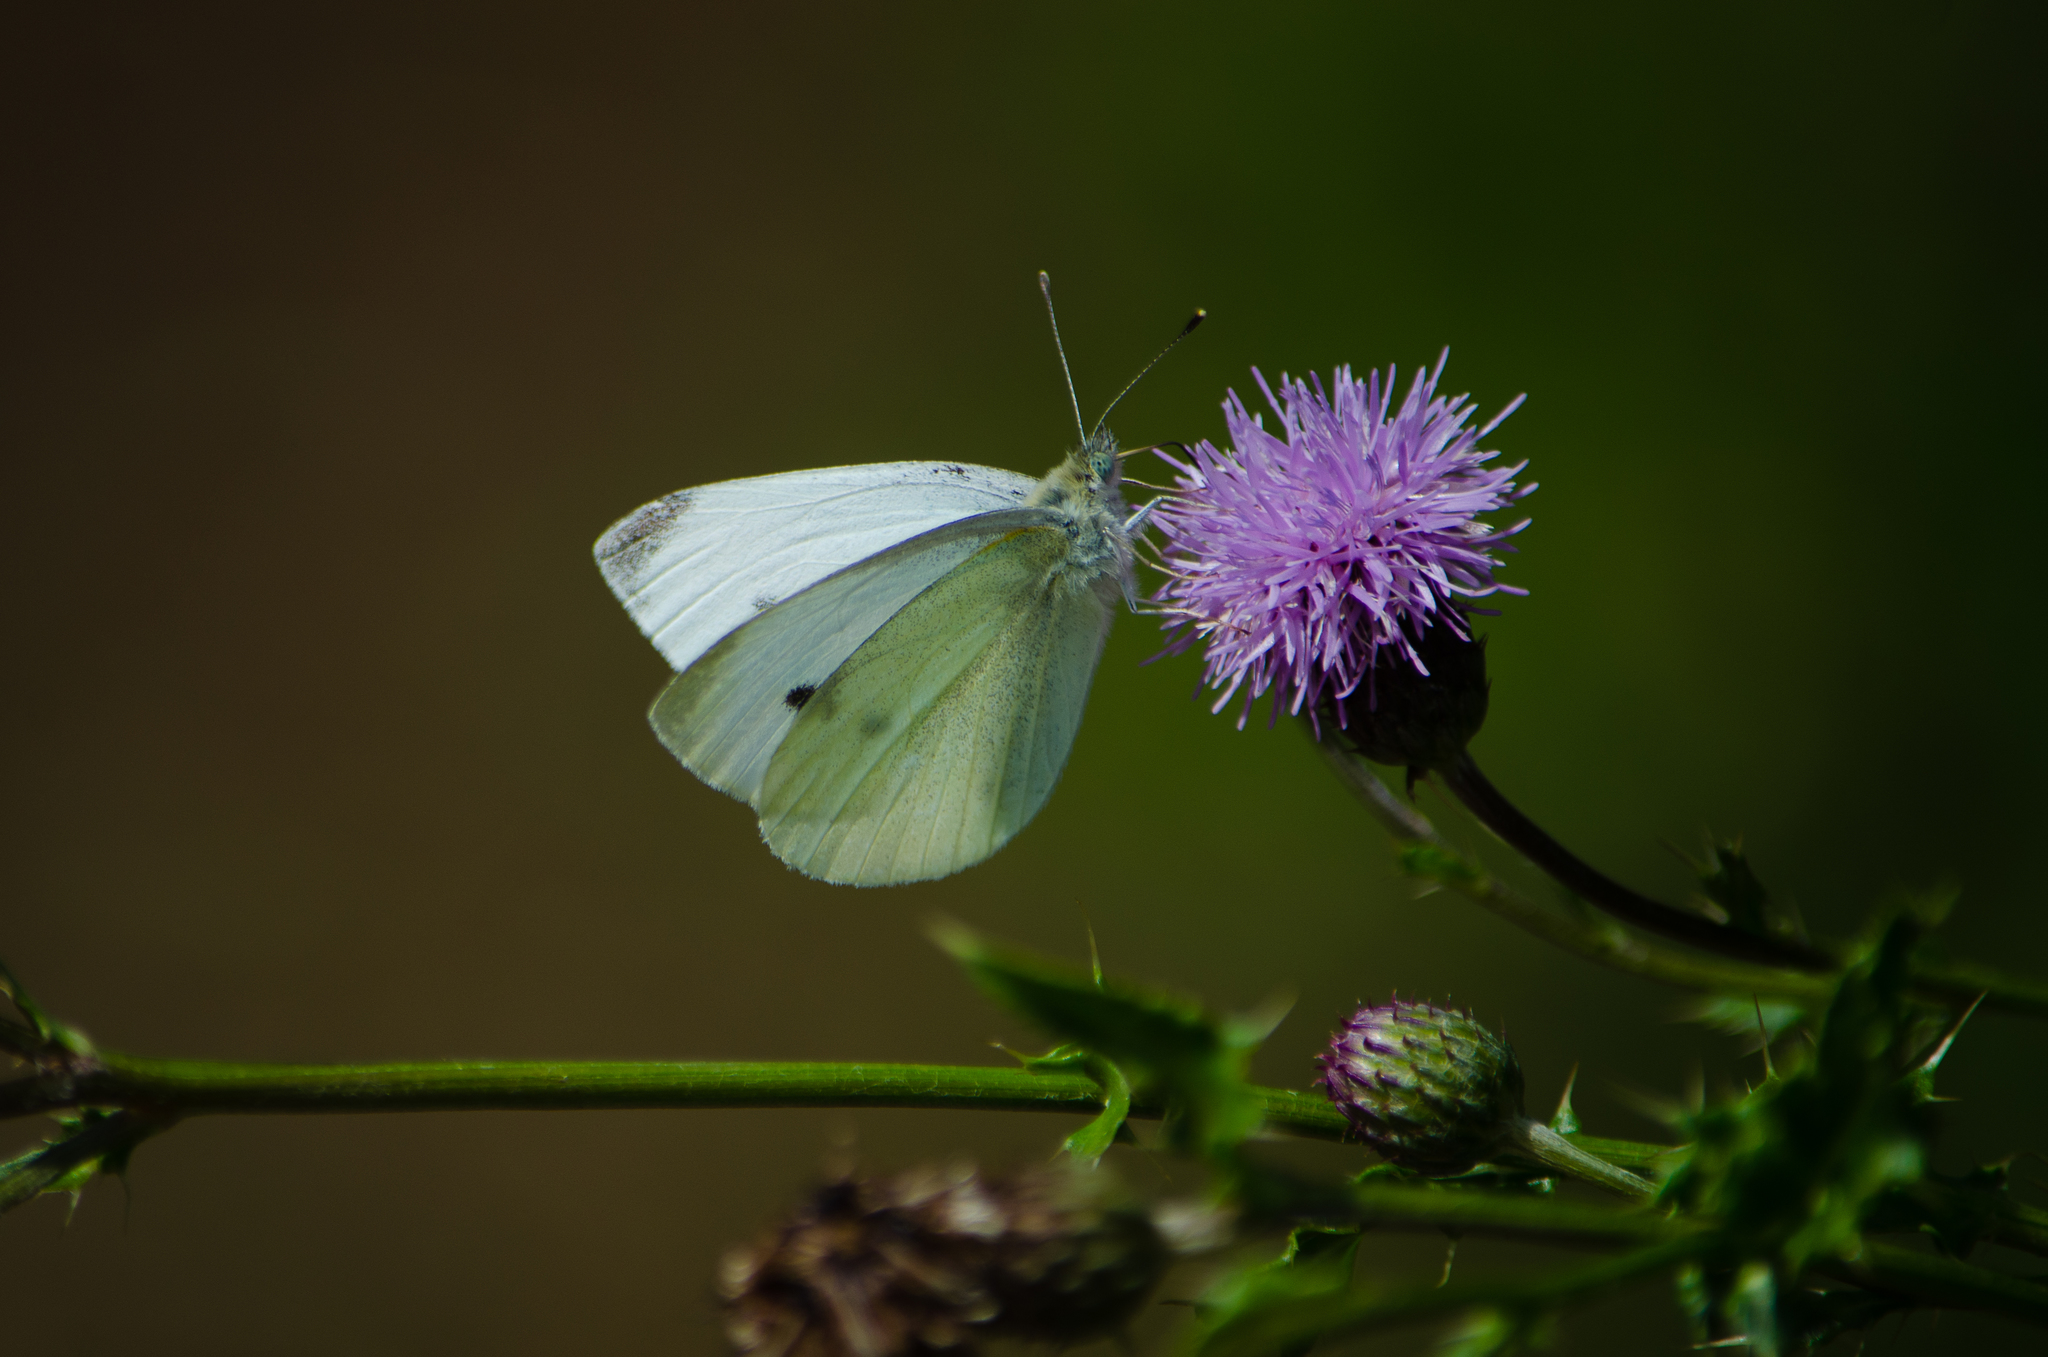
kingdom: Animalia
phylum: Arthropoda
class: Insecta
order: Lepidoptera
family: Pieridae
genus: Pieris
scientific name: Pieris rapae
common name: Small white
